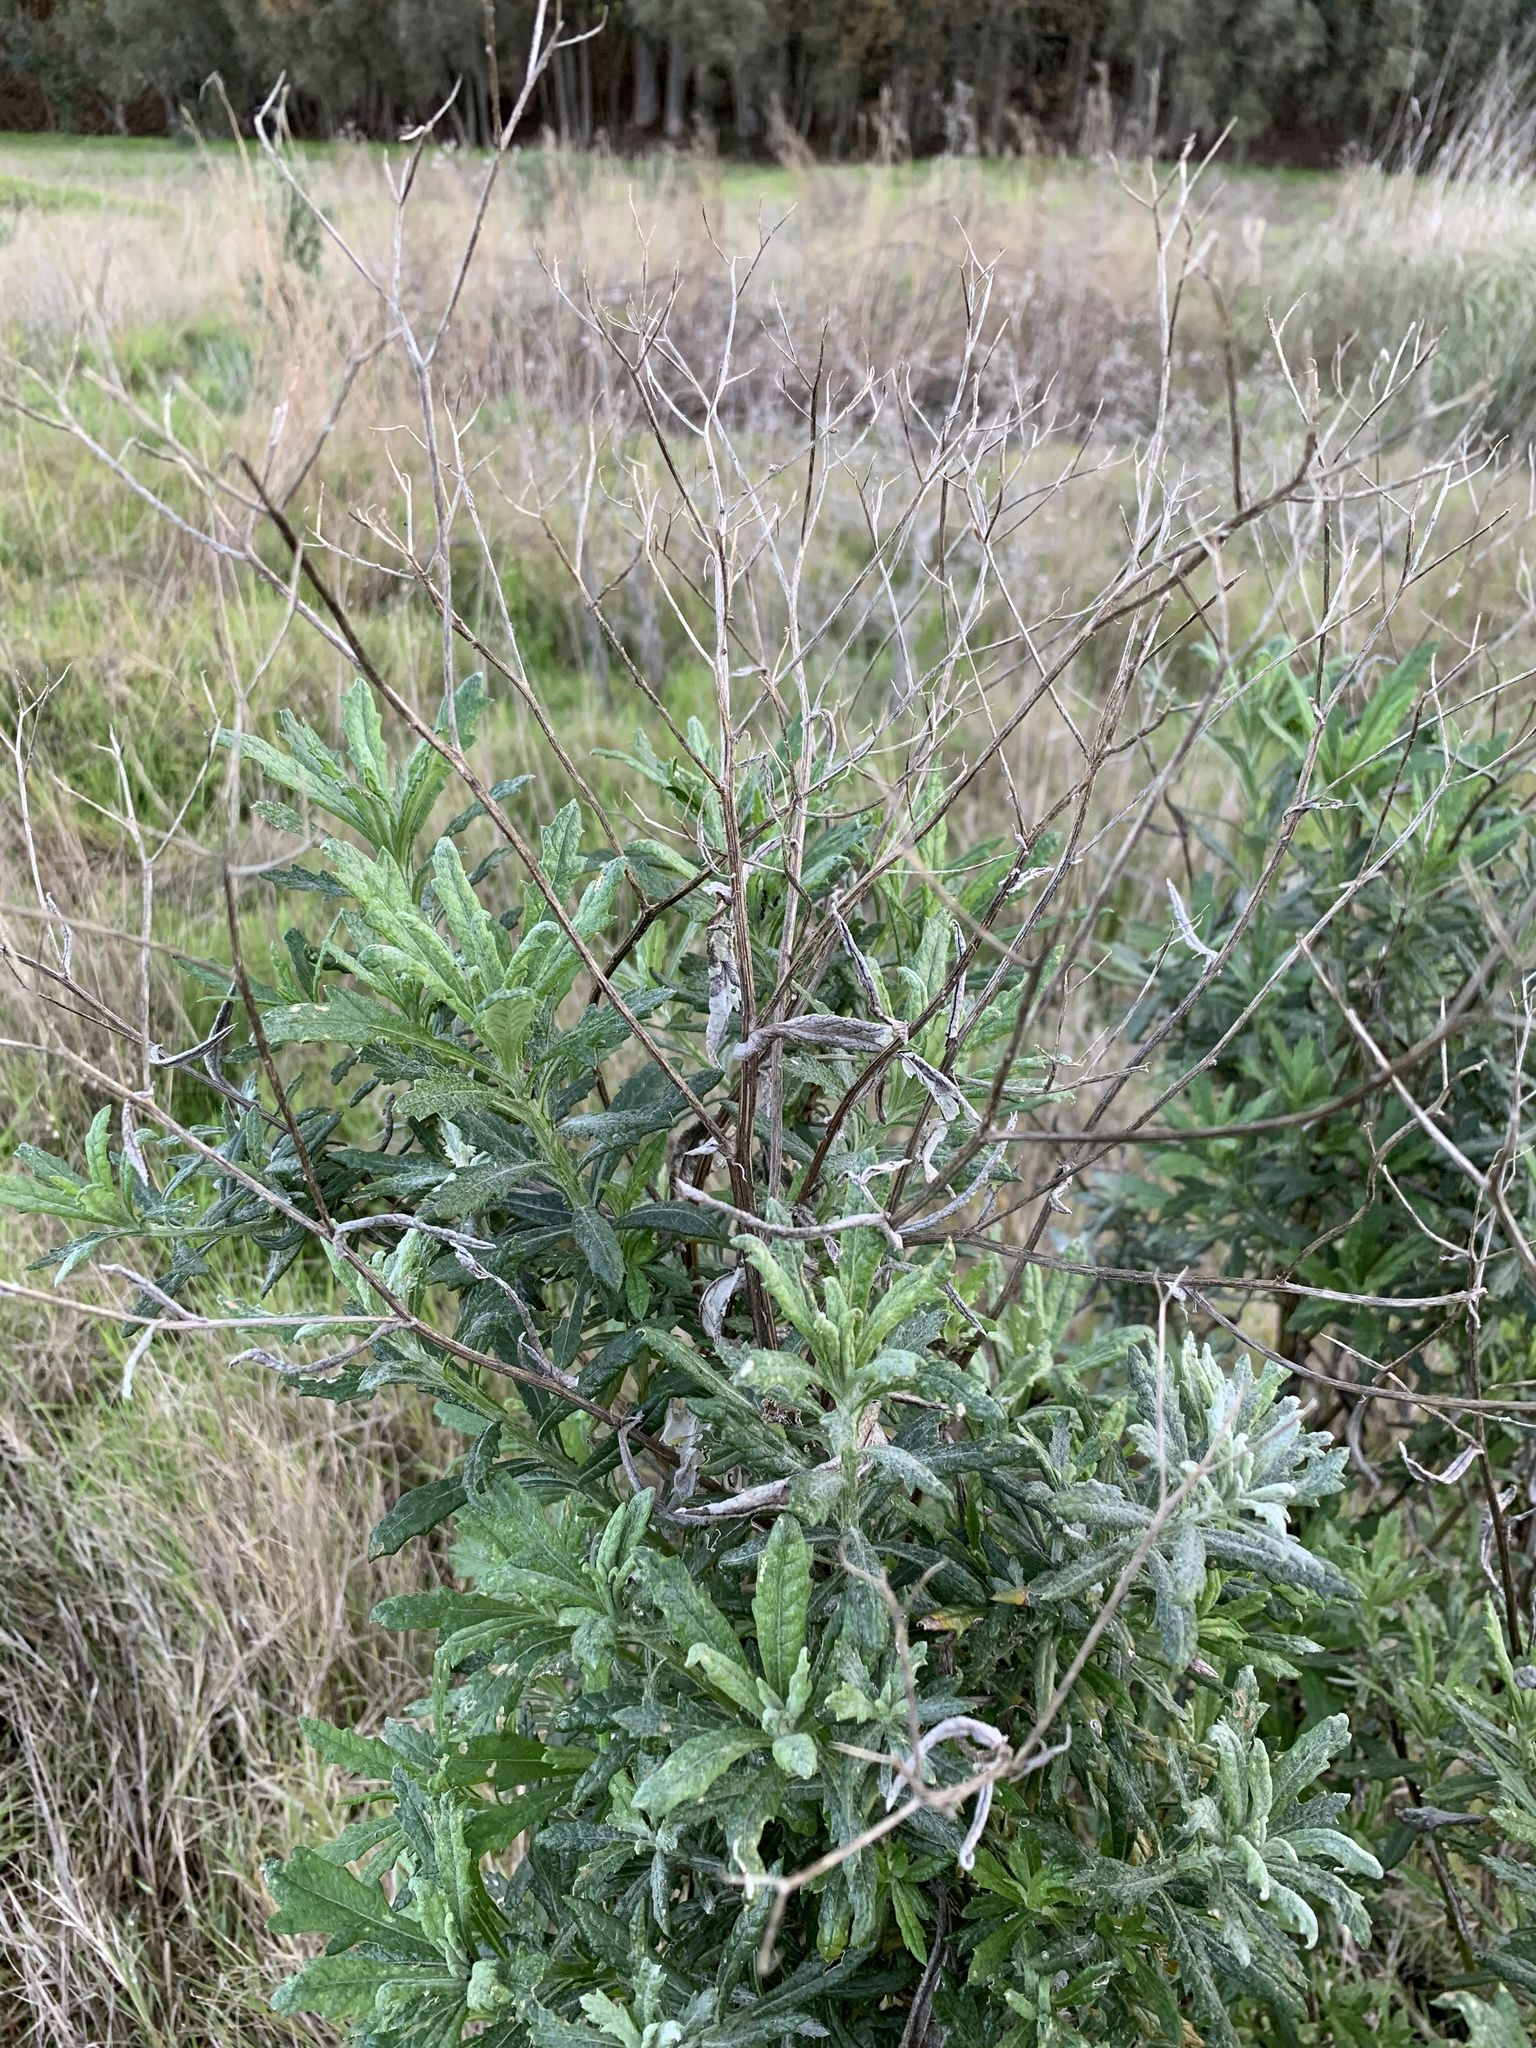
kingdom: Plantae
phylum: Tracheophyta
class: Magnoliopsida
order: Asterales
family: Asteraceae
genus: Senecio
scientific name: Senecio pterophorus
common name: Shoddy ragwort
